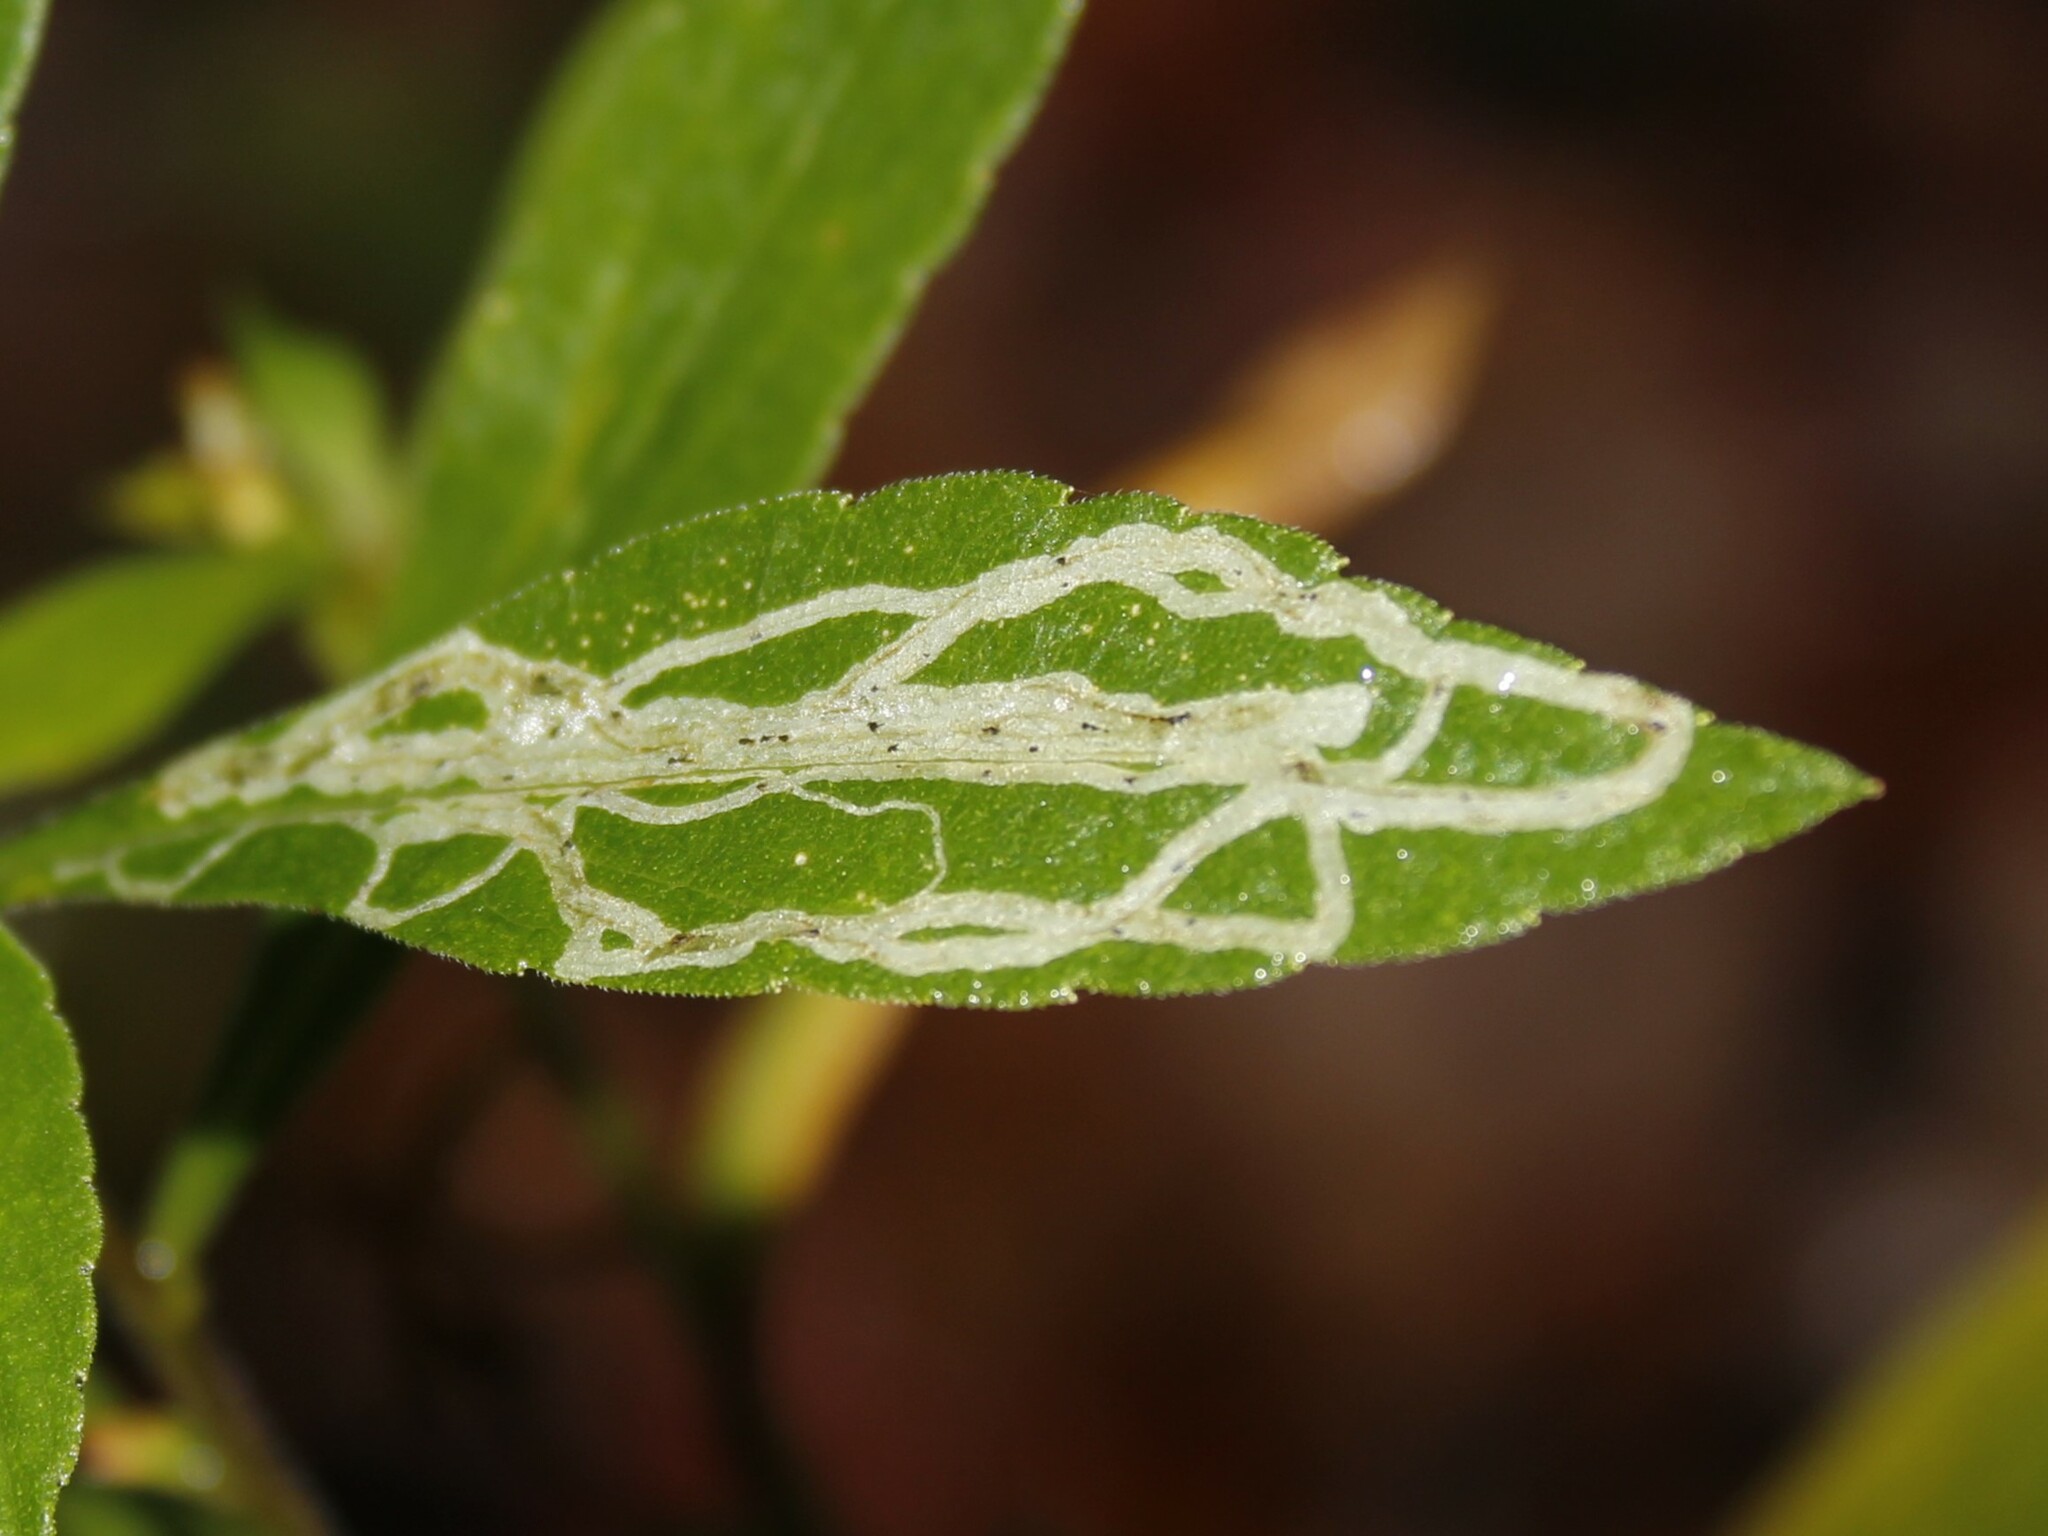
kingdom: Animalia
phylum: Arthropoda
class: Insecta
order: Diptera
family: Agromyzidae
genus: Ophiomyia
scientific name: Ophiomyia maura
